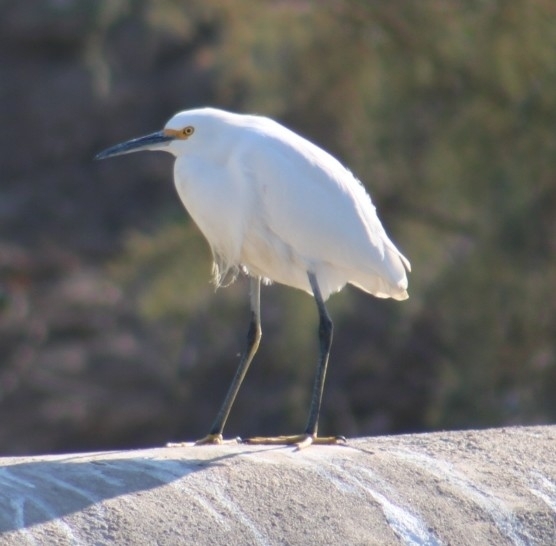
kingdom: Animalia
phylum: Chordata
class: Aves
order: Pelecaniformes
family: Ardeidae
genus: Egretta
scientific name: Egretta thula
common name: Snowy egret
